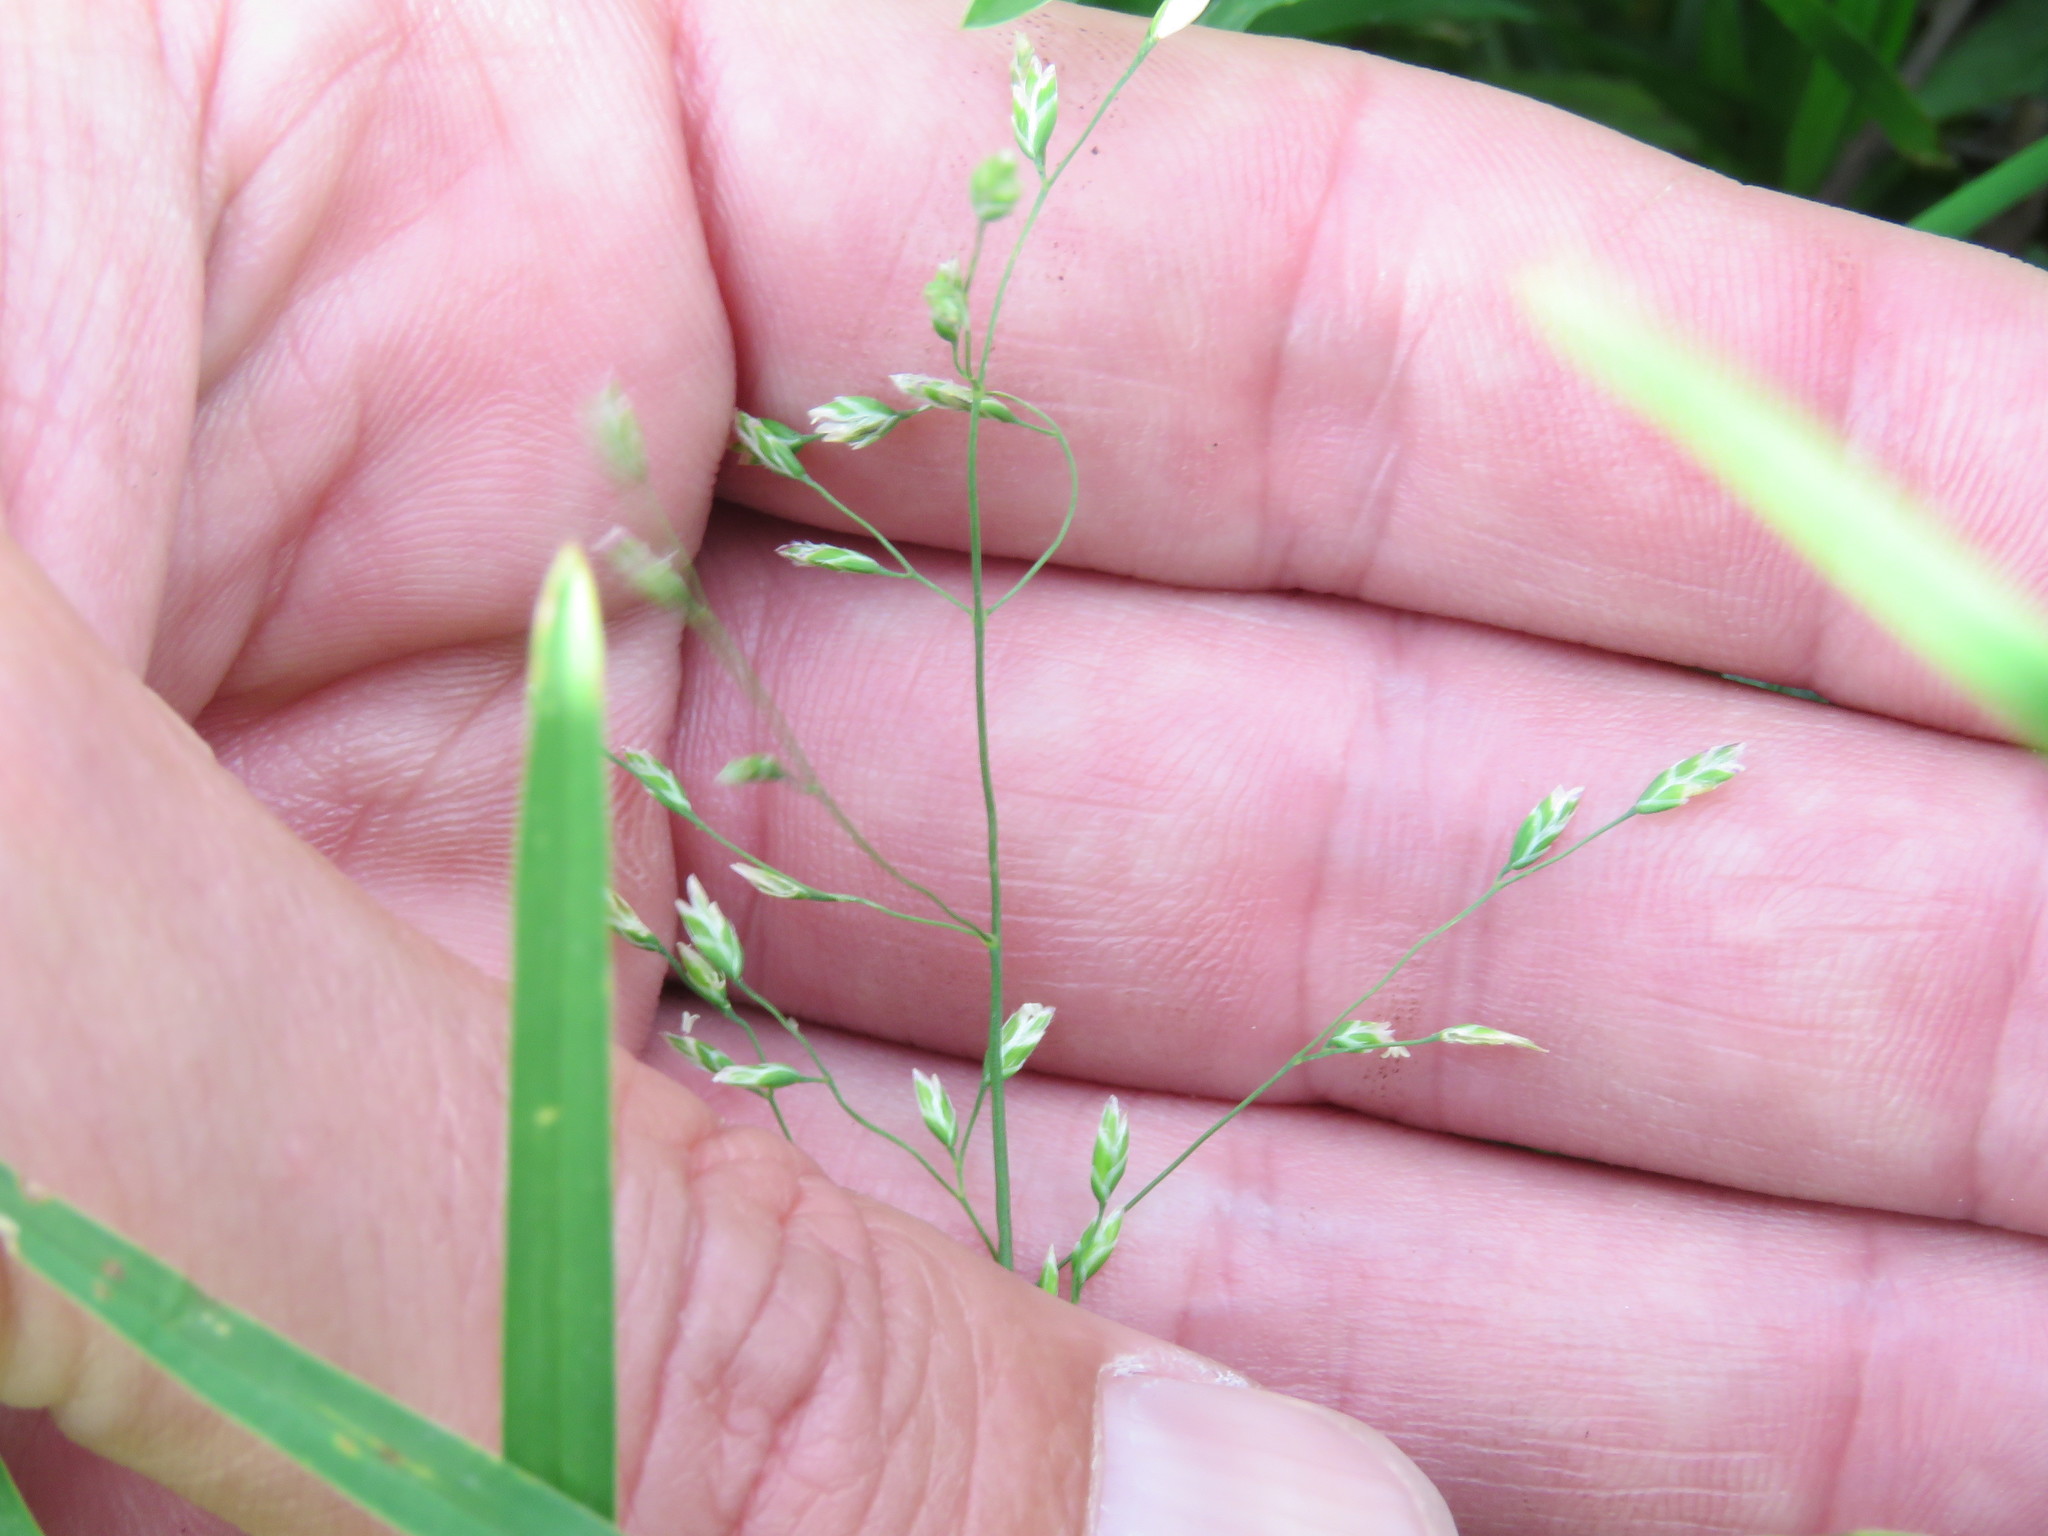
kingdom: Plantae
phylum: Tracheophyta
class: Liliopsida
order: Poales
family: Poaceae
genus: Cenchrus
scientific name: Cenchrus clandestinus
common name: Kikuyugrass
